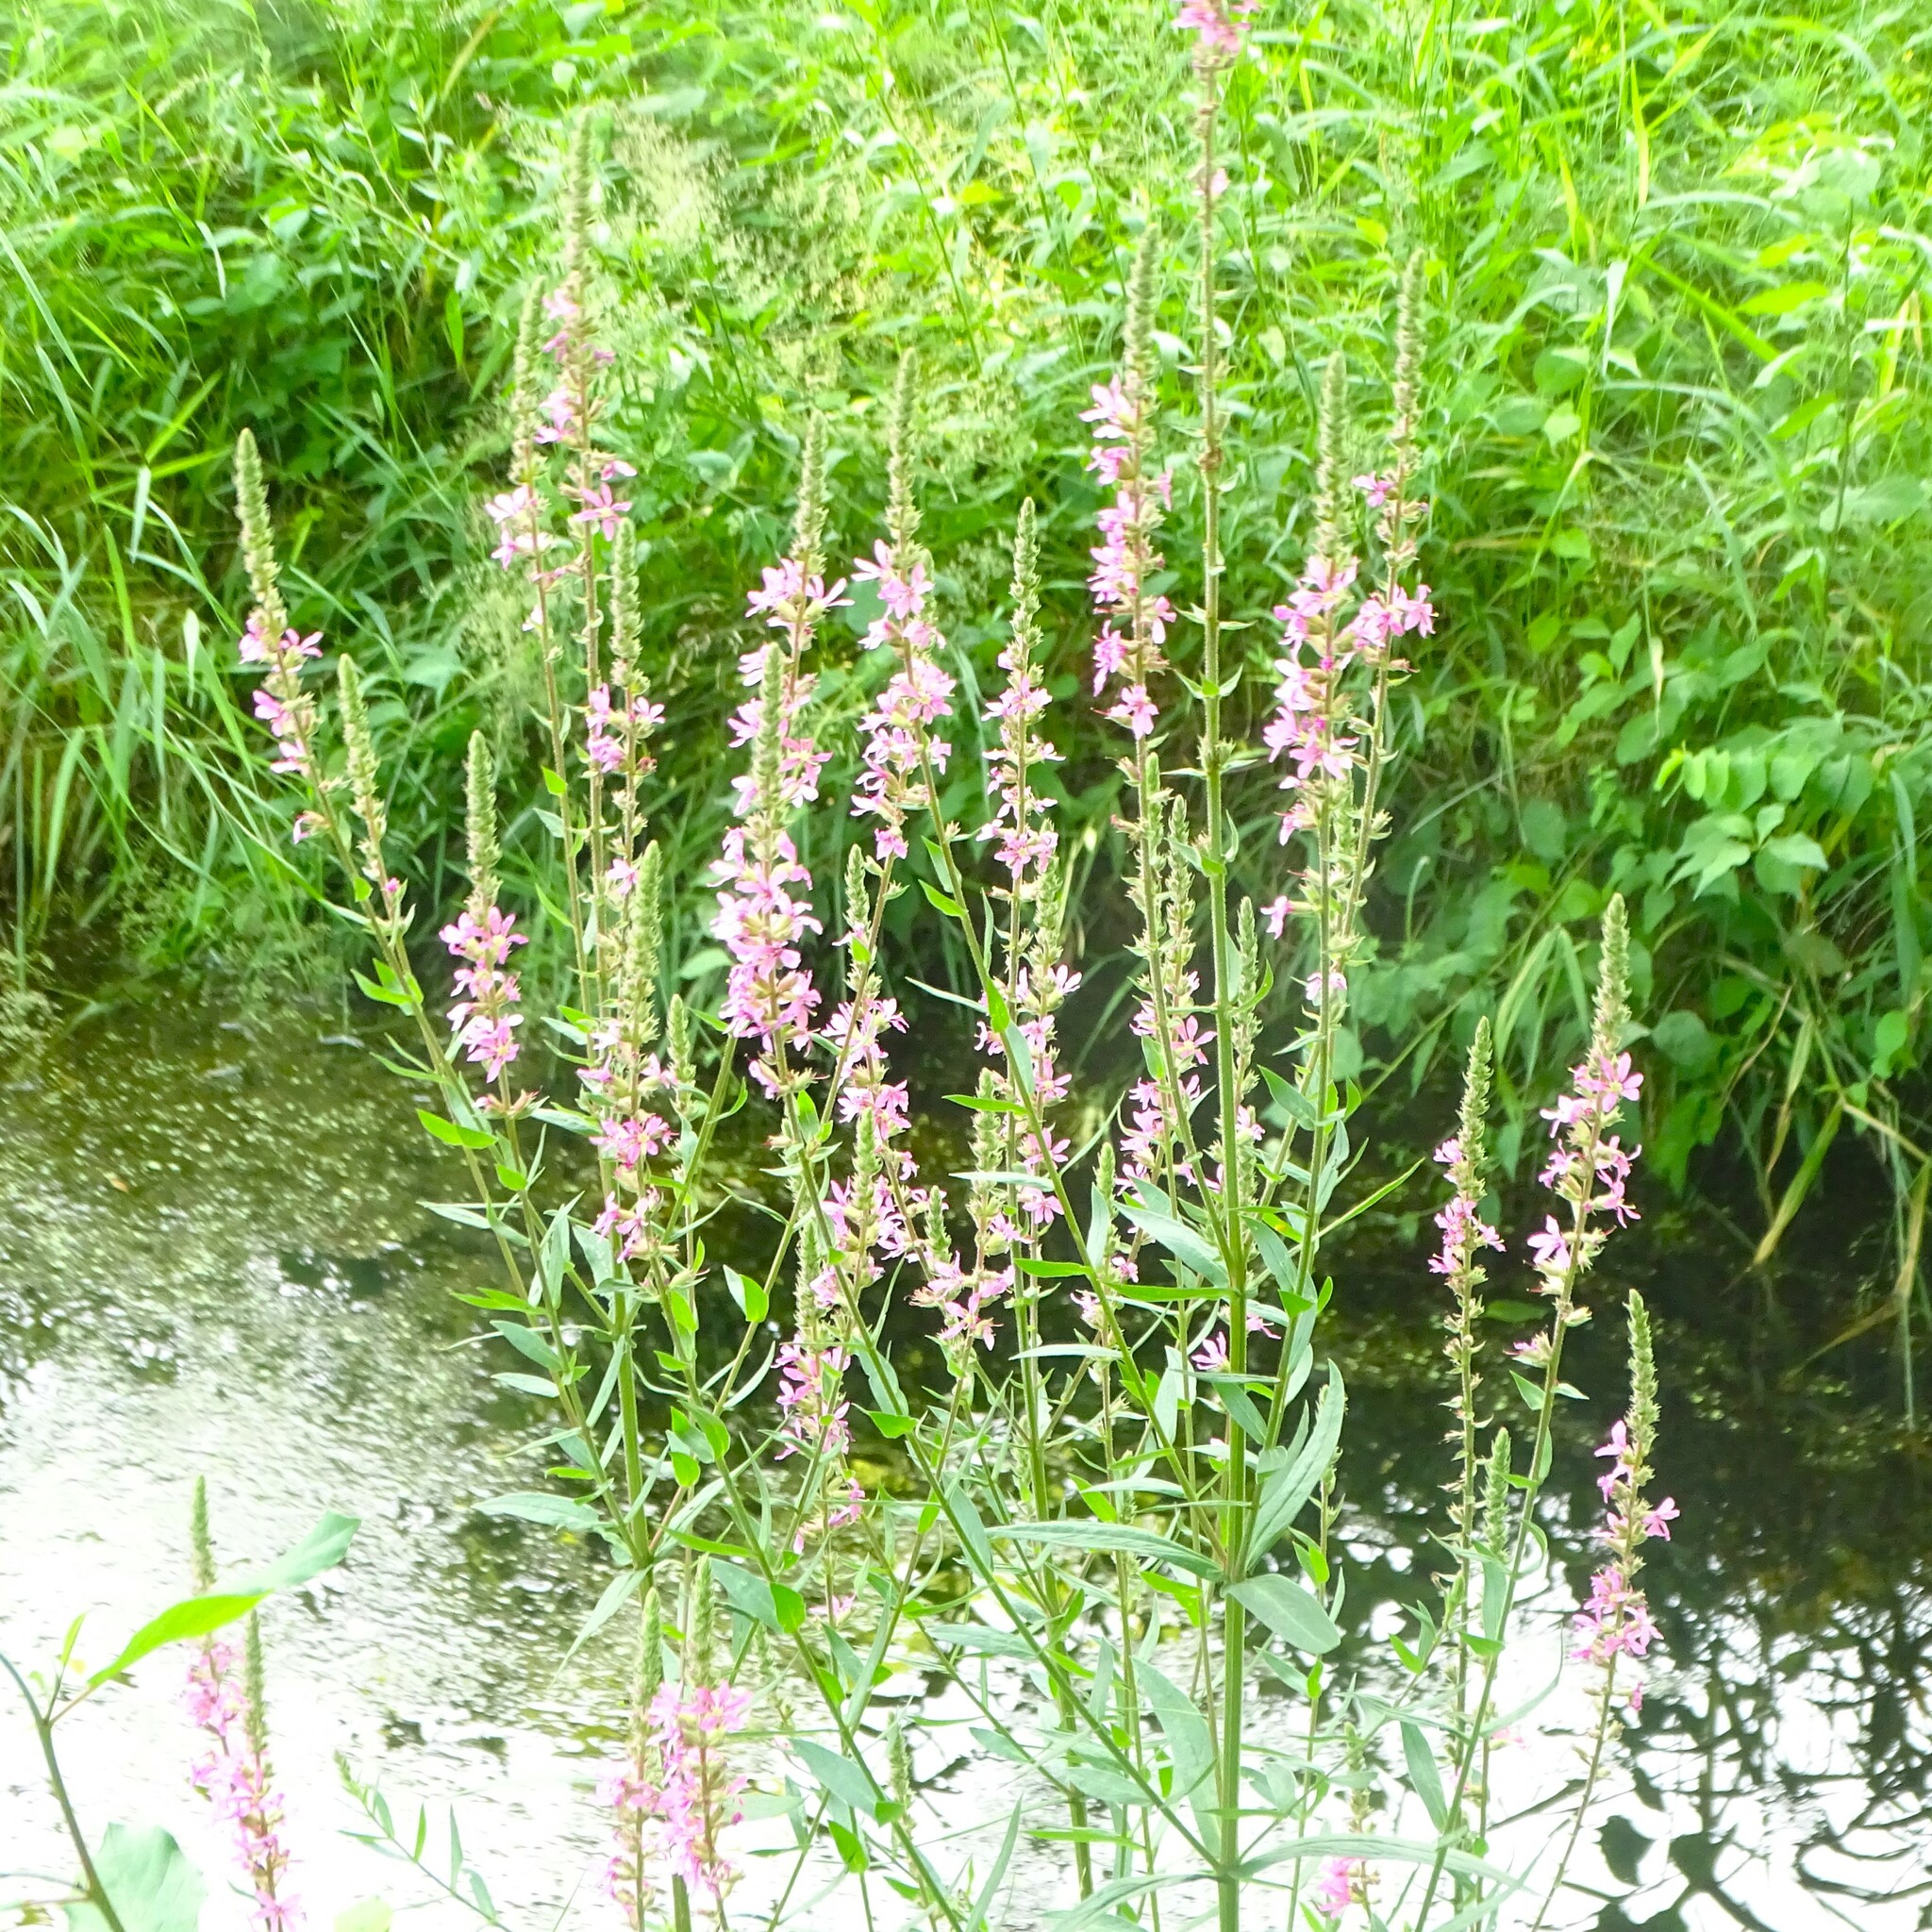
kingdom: Plantae
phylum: Tracheophyta
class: Magnoliopsida
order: Myrtales
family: Lythraceae
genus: Lythrum
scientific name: Lythrum salicaria
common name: Purple loosestrife
